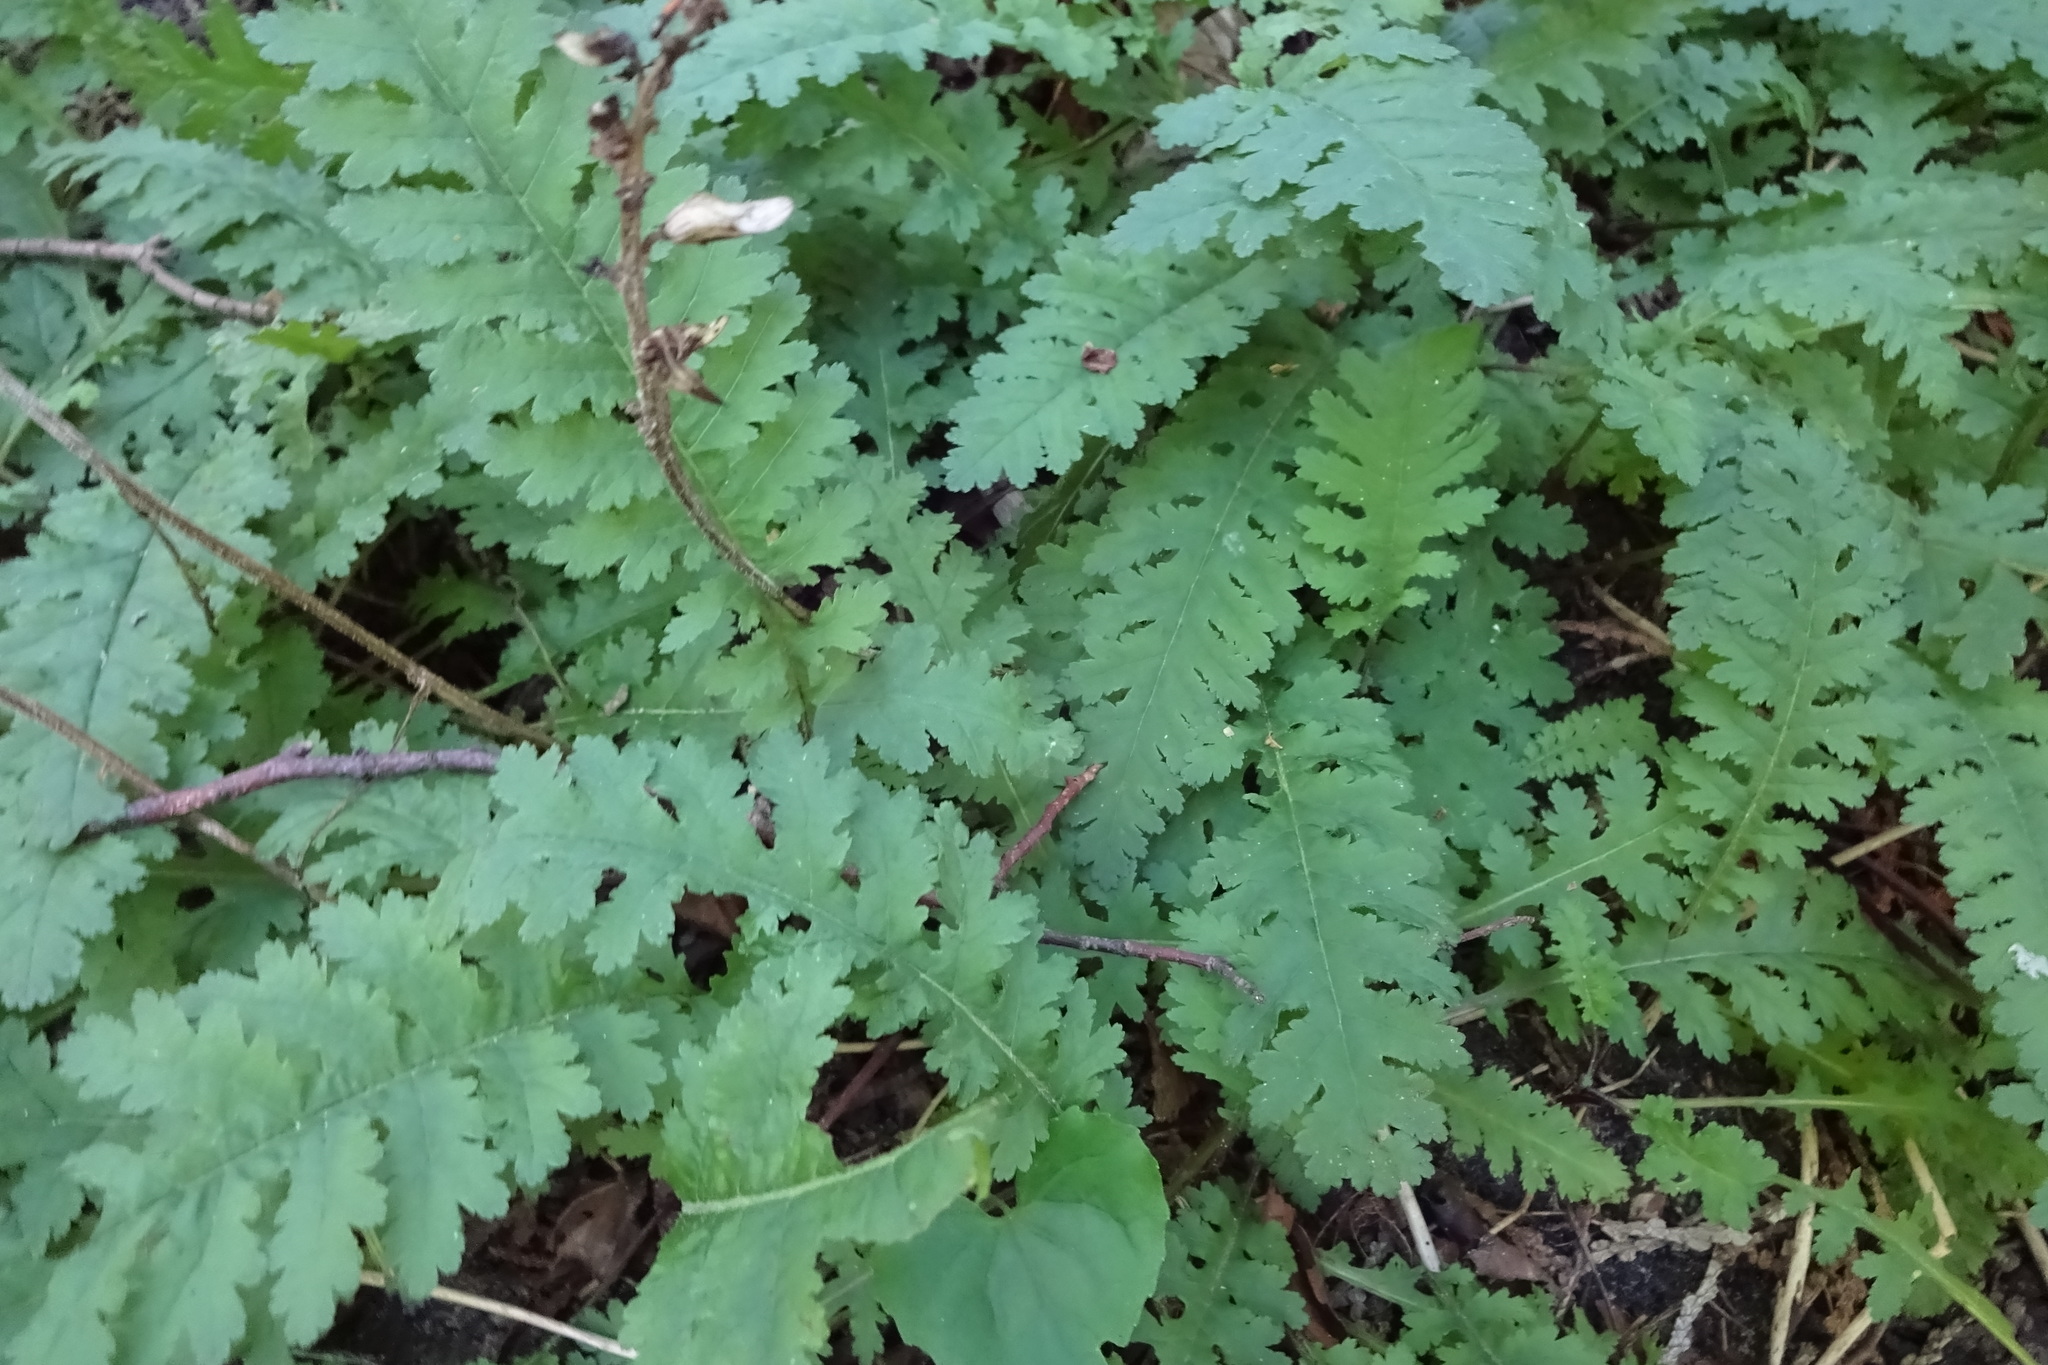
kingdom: Plantae
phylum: Tracheophyta
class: Magnoliopsida
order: Lamiales
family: Orobanchaceae
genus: Pedicularis
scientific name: Pedicularis canadensis
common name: Early lousewort
